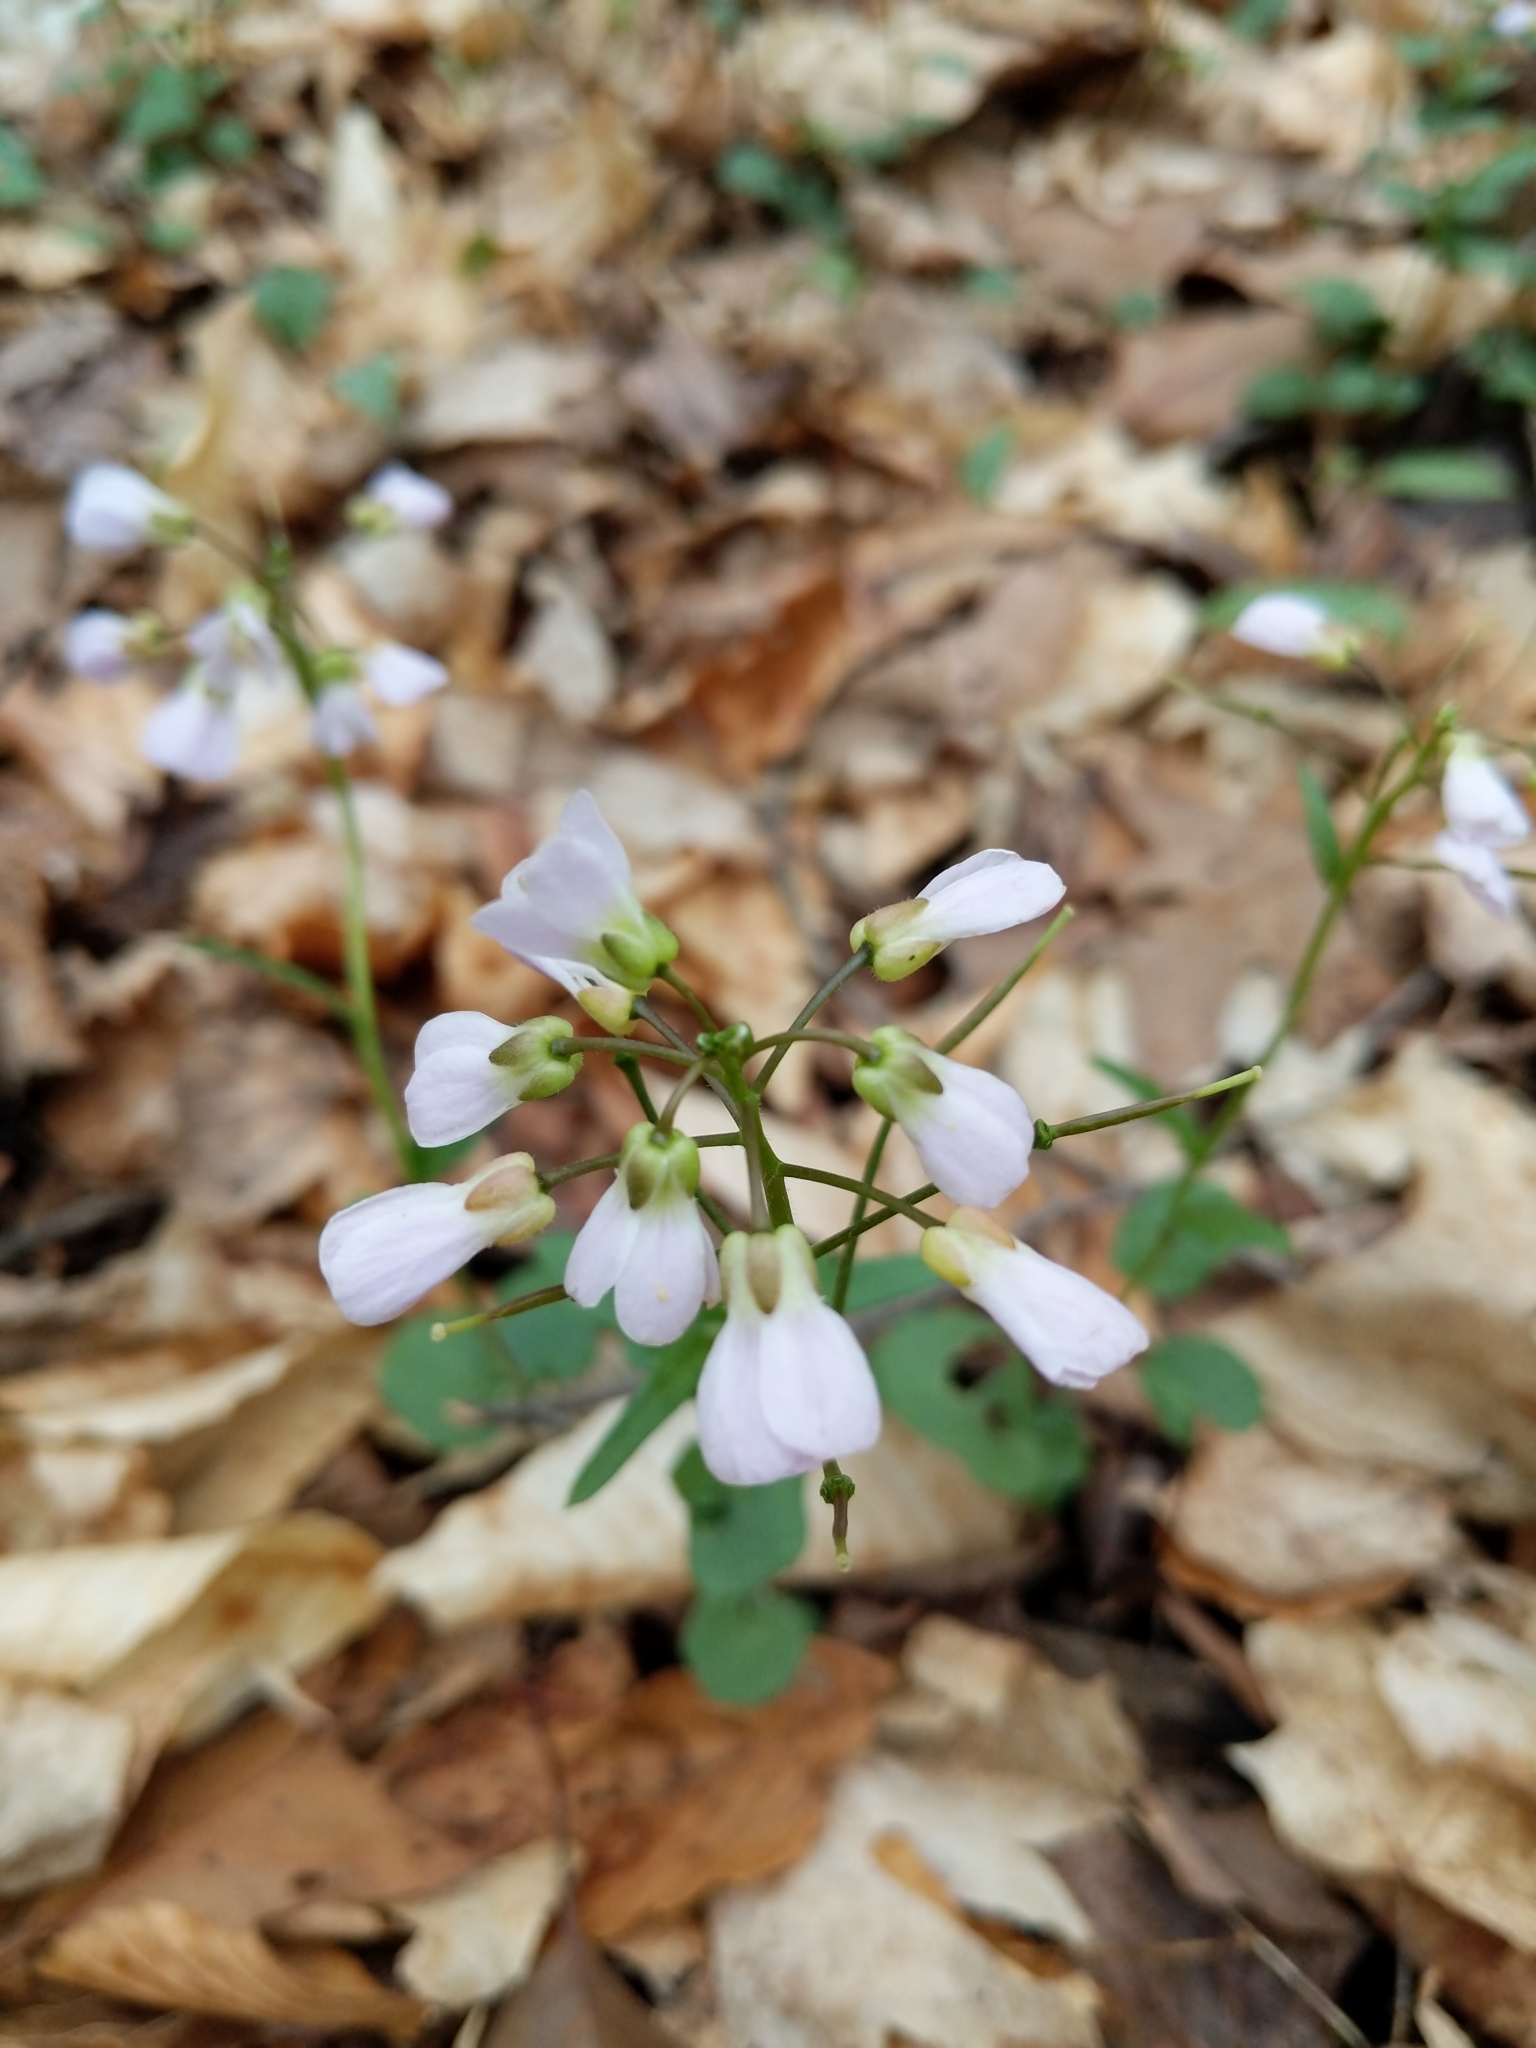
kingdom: Plantae
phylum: Tracheophyta
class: Magnoliopsida
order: Brassicales
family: Brassicaceae
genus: Cardamine
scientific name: Cardamine douglassii
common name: Purple cress
